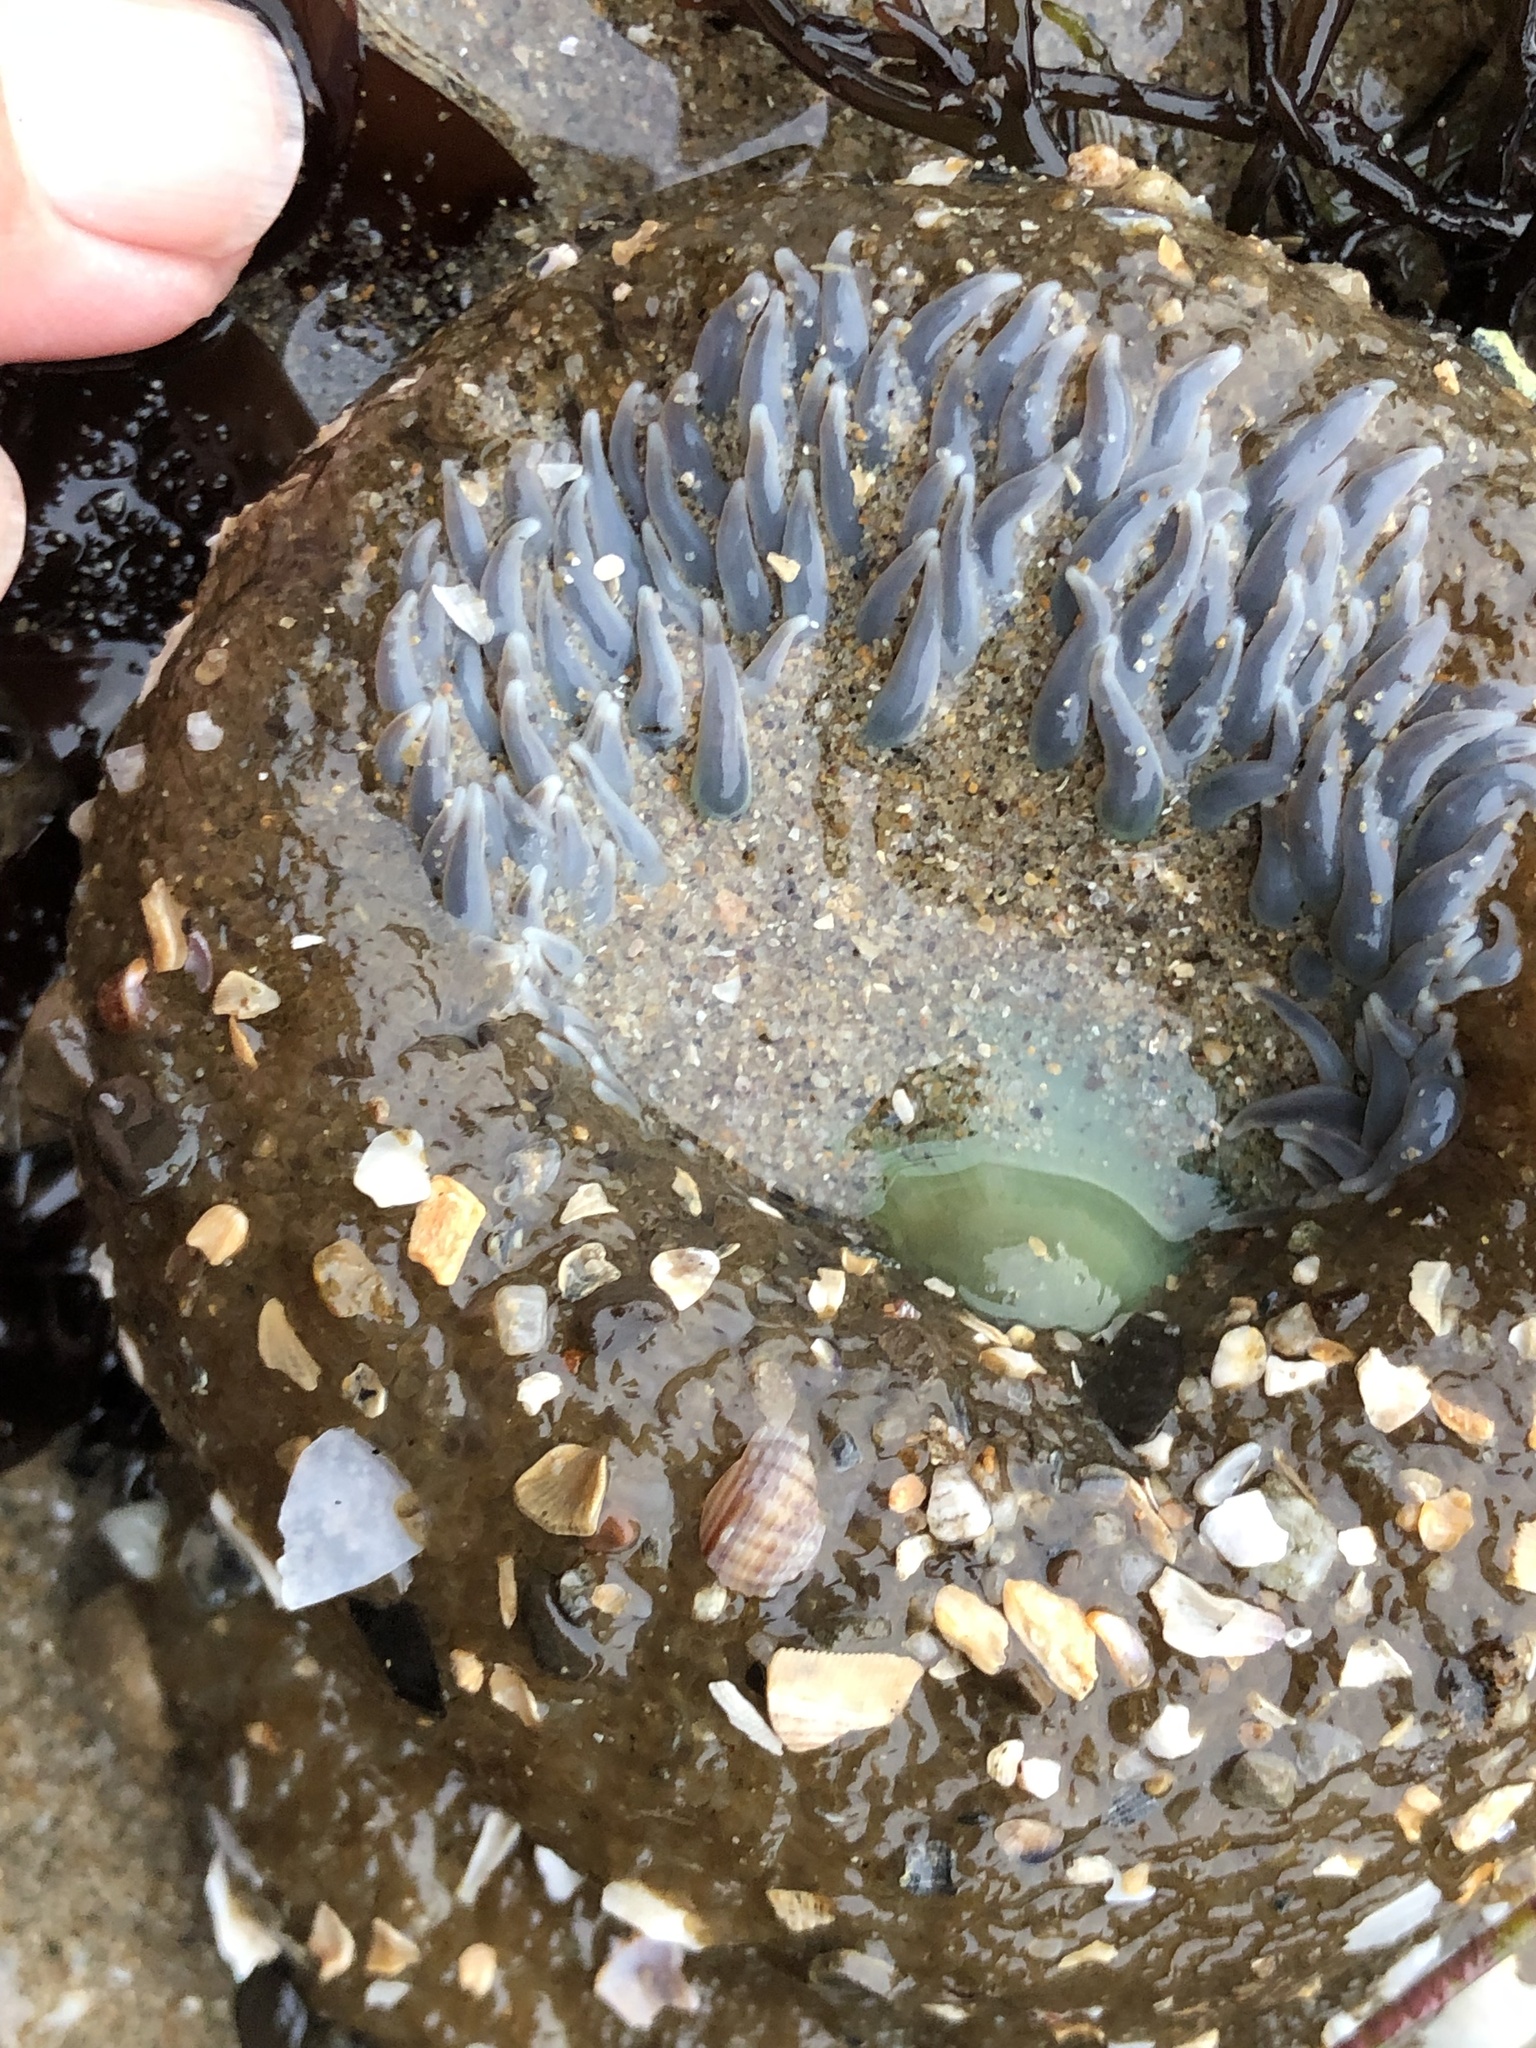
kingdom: Animalia
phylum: Cnidaria
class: Anthozoa
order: Actiniaria
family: Actiniidae
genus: Anthopleura
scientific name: Anthopleura xanthogrammica
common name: Giant green anemone
